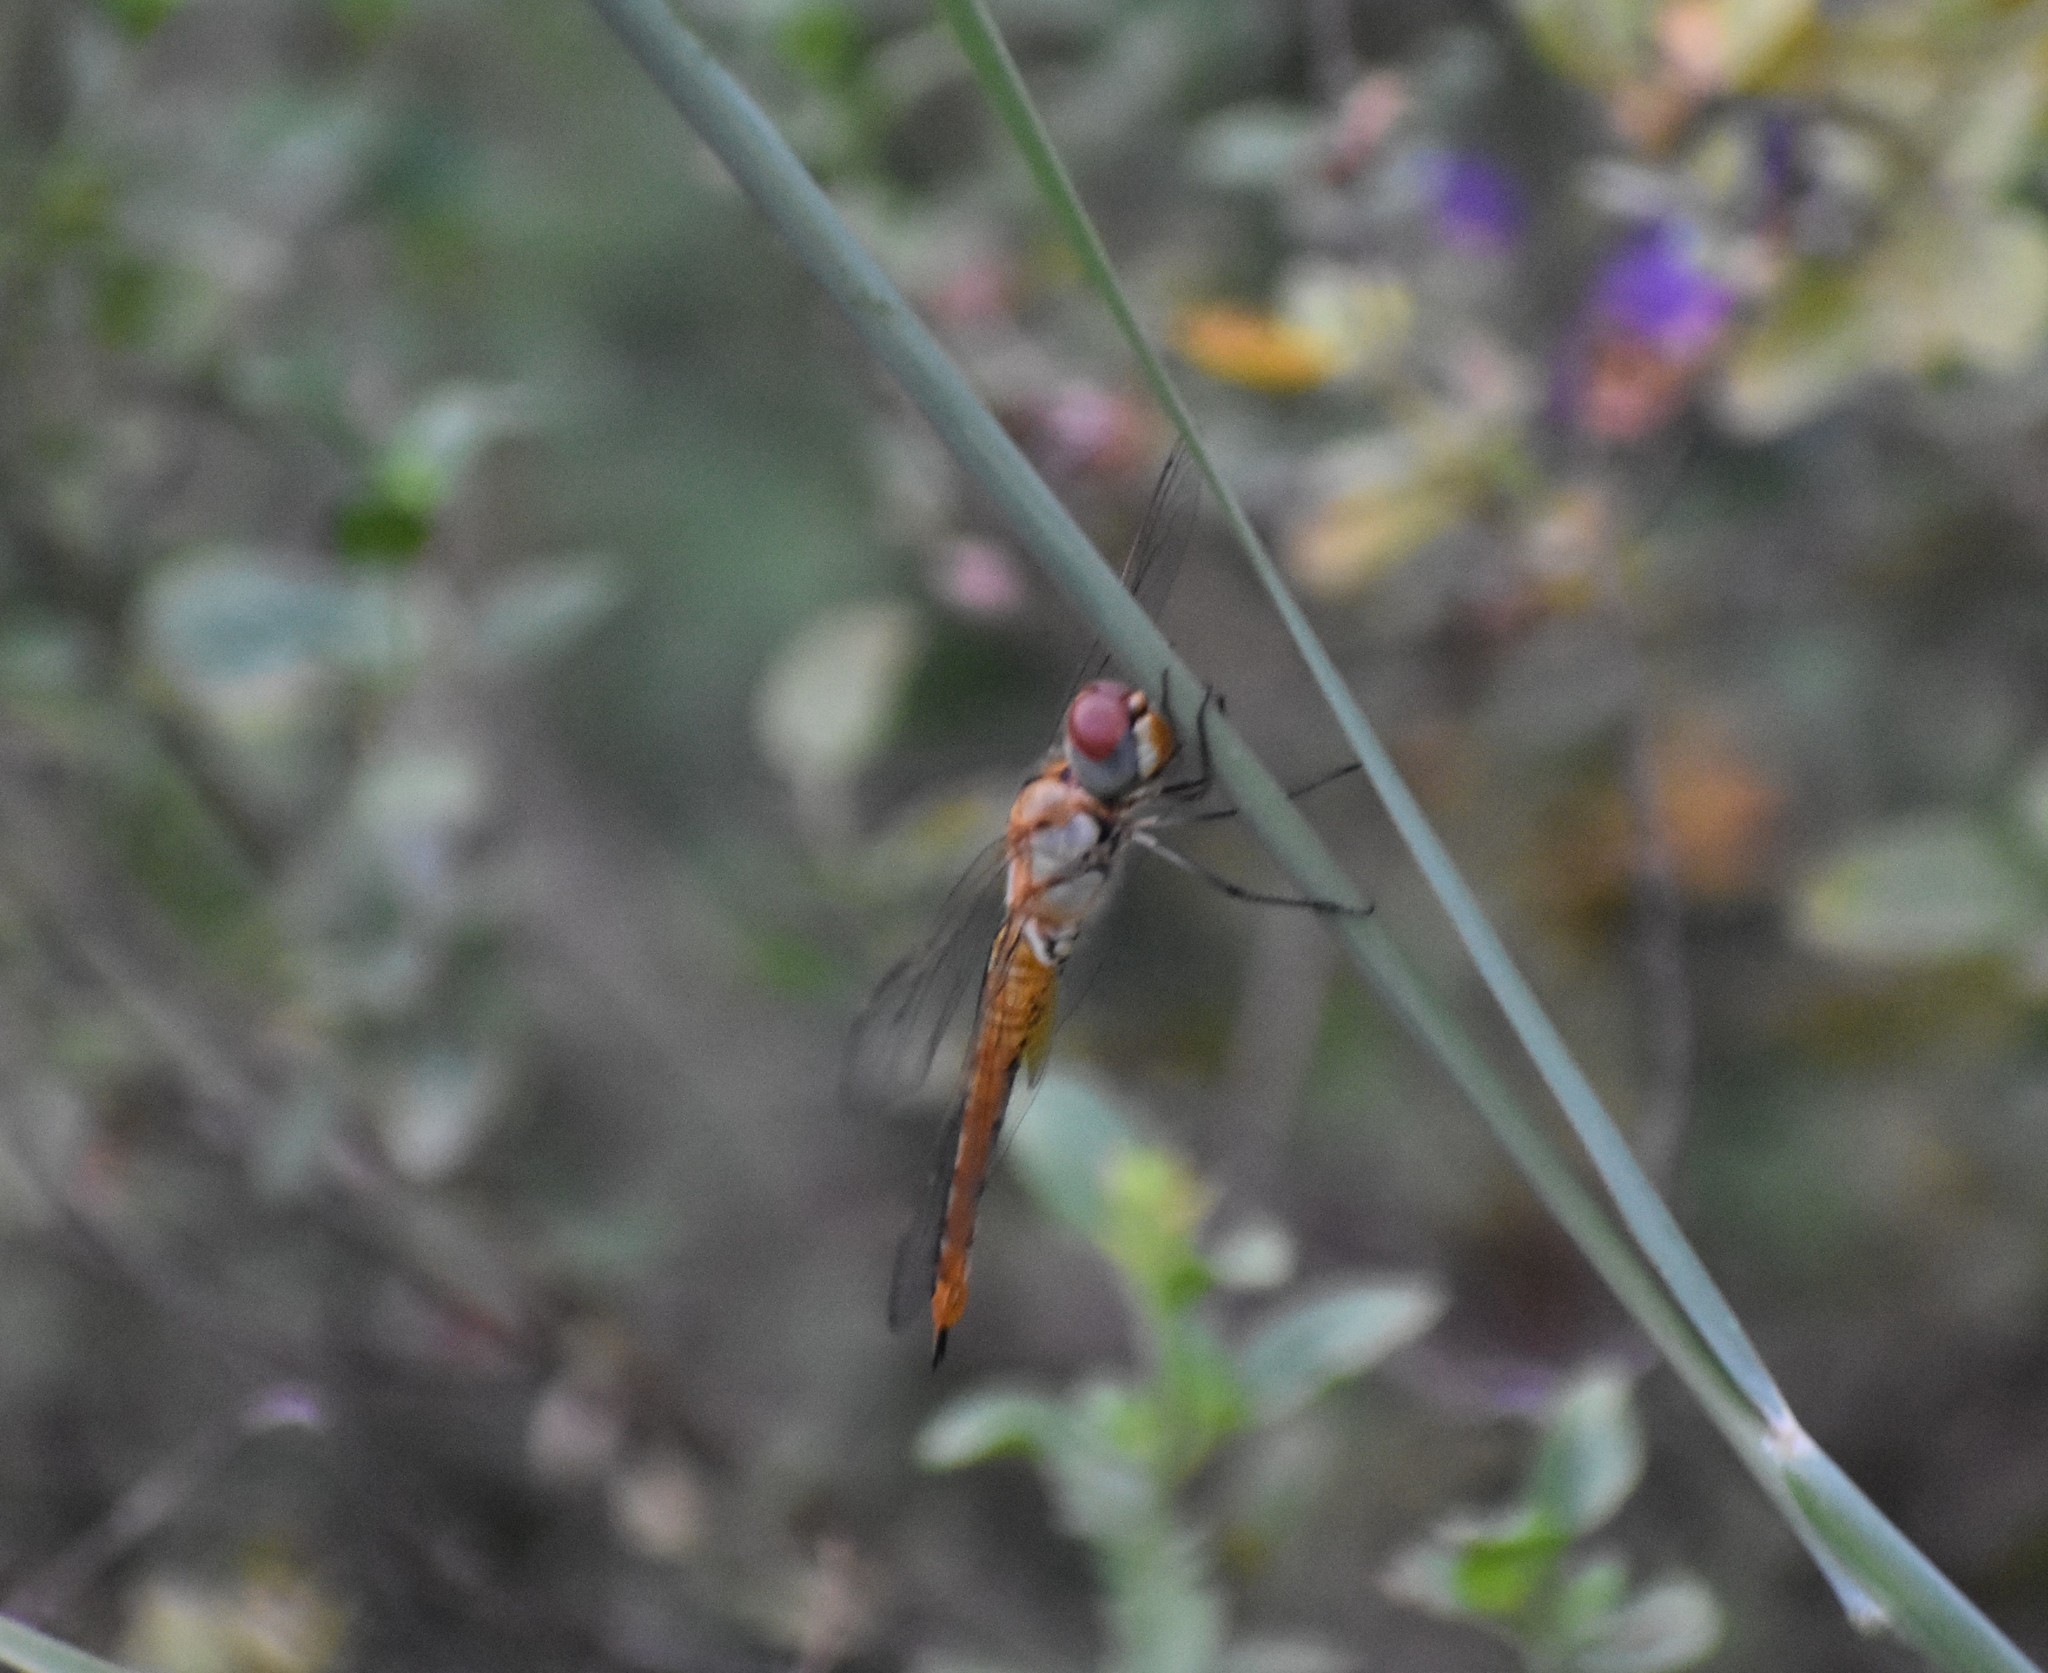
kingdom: Animalia
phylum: Arthropoda
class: Insecta
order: Odonata
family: Libellulidae
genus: Pantala
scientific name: Pantala flavescens
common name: Wandering glider
